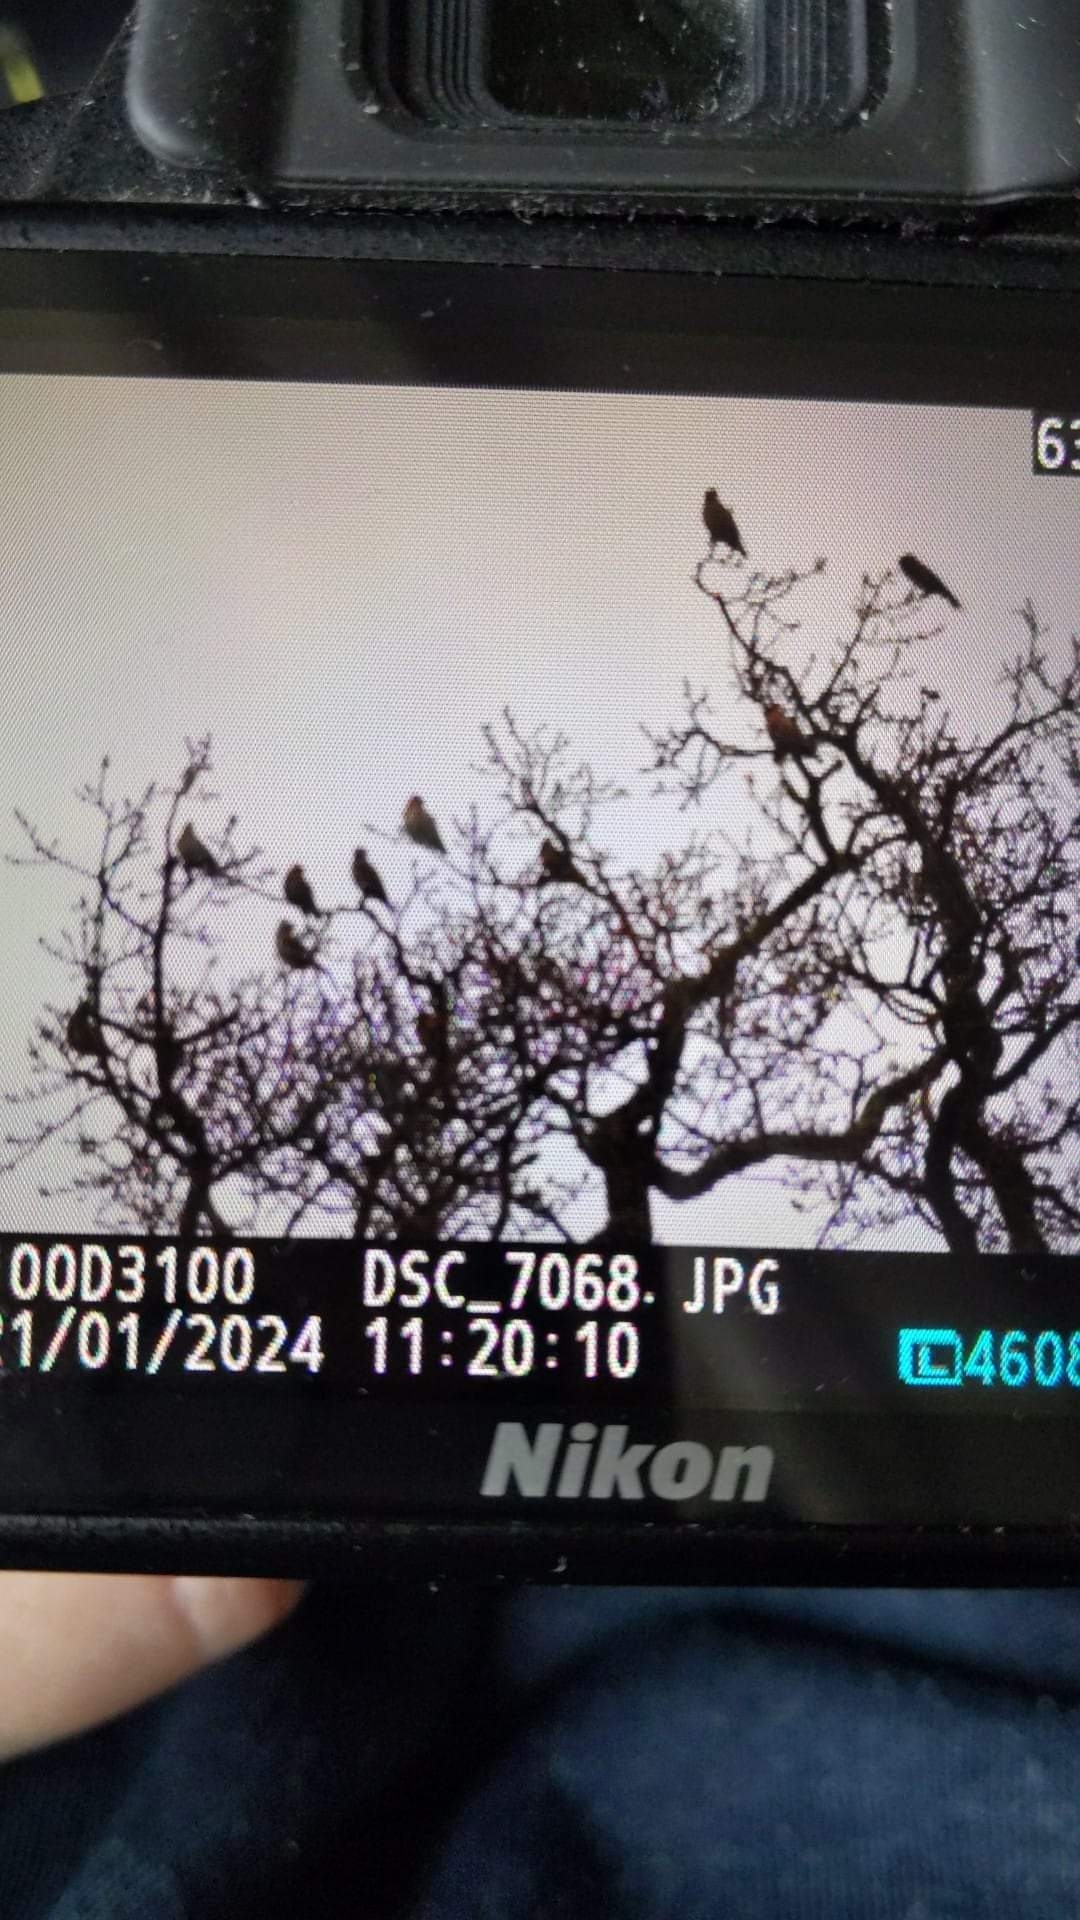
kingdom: Animalia
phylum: Chordata
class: Aves
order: Passeriformes
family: Bombycillidae
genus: Bombycilla
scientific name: Bombycilla garrulus
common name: Bohemian waxwing
